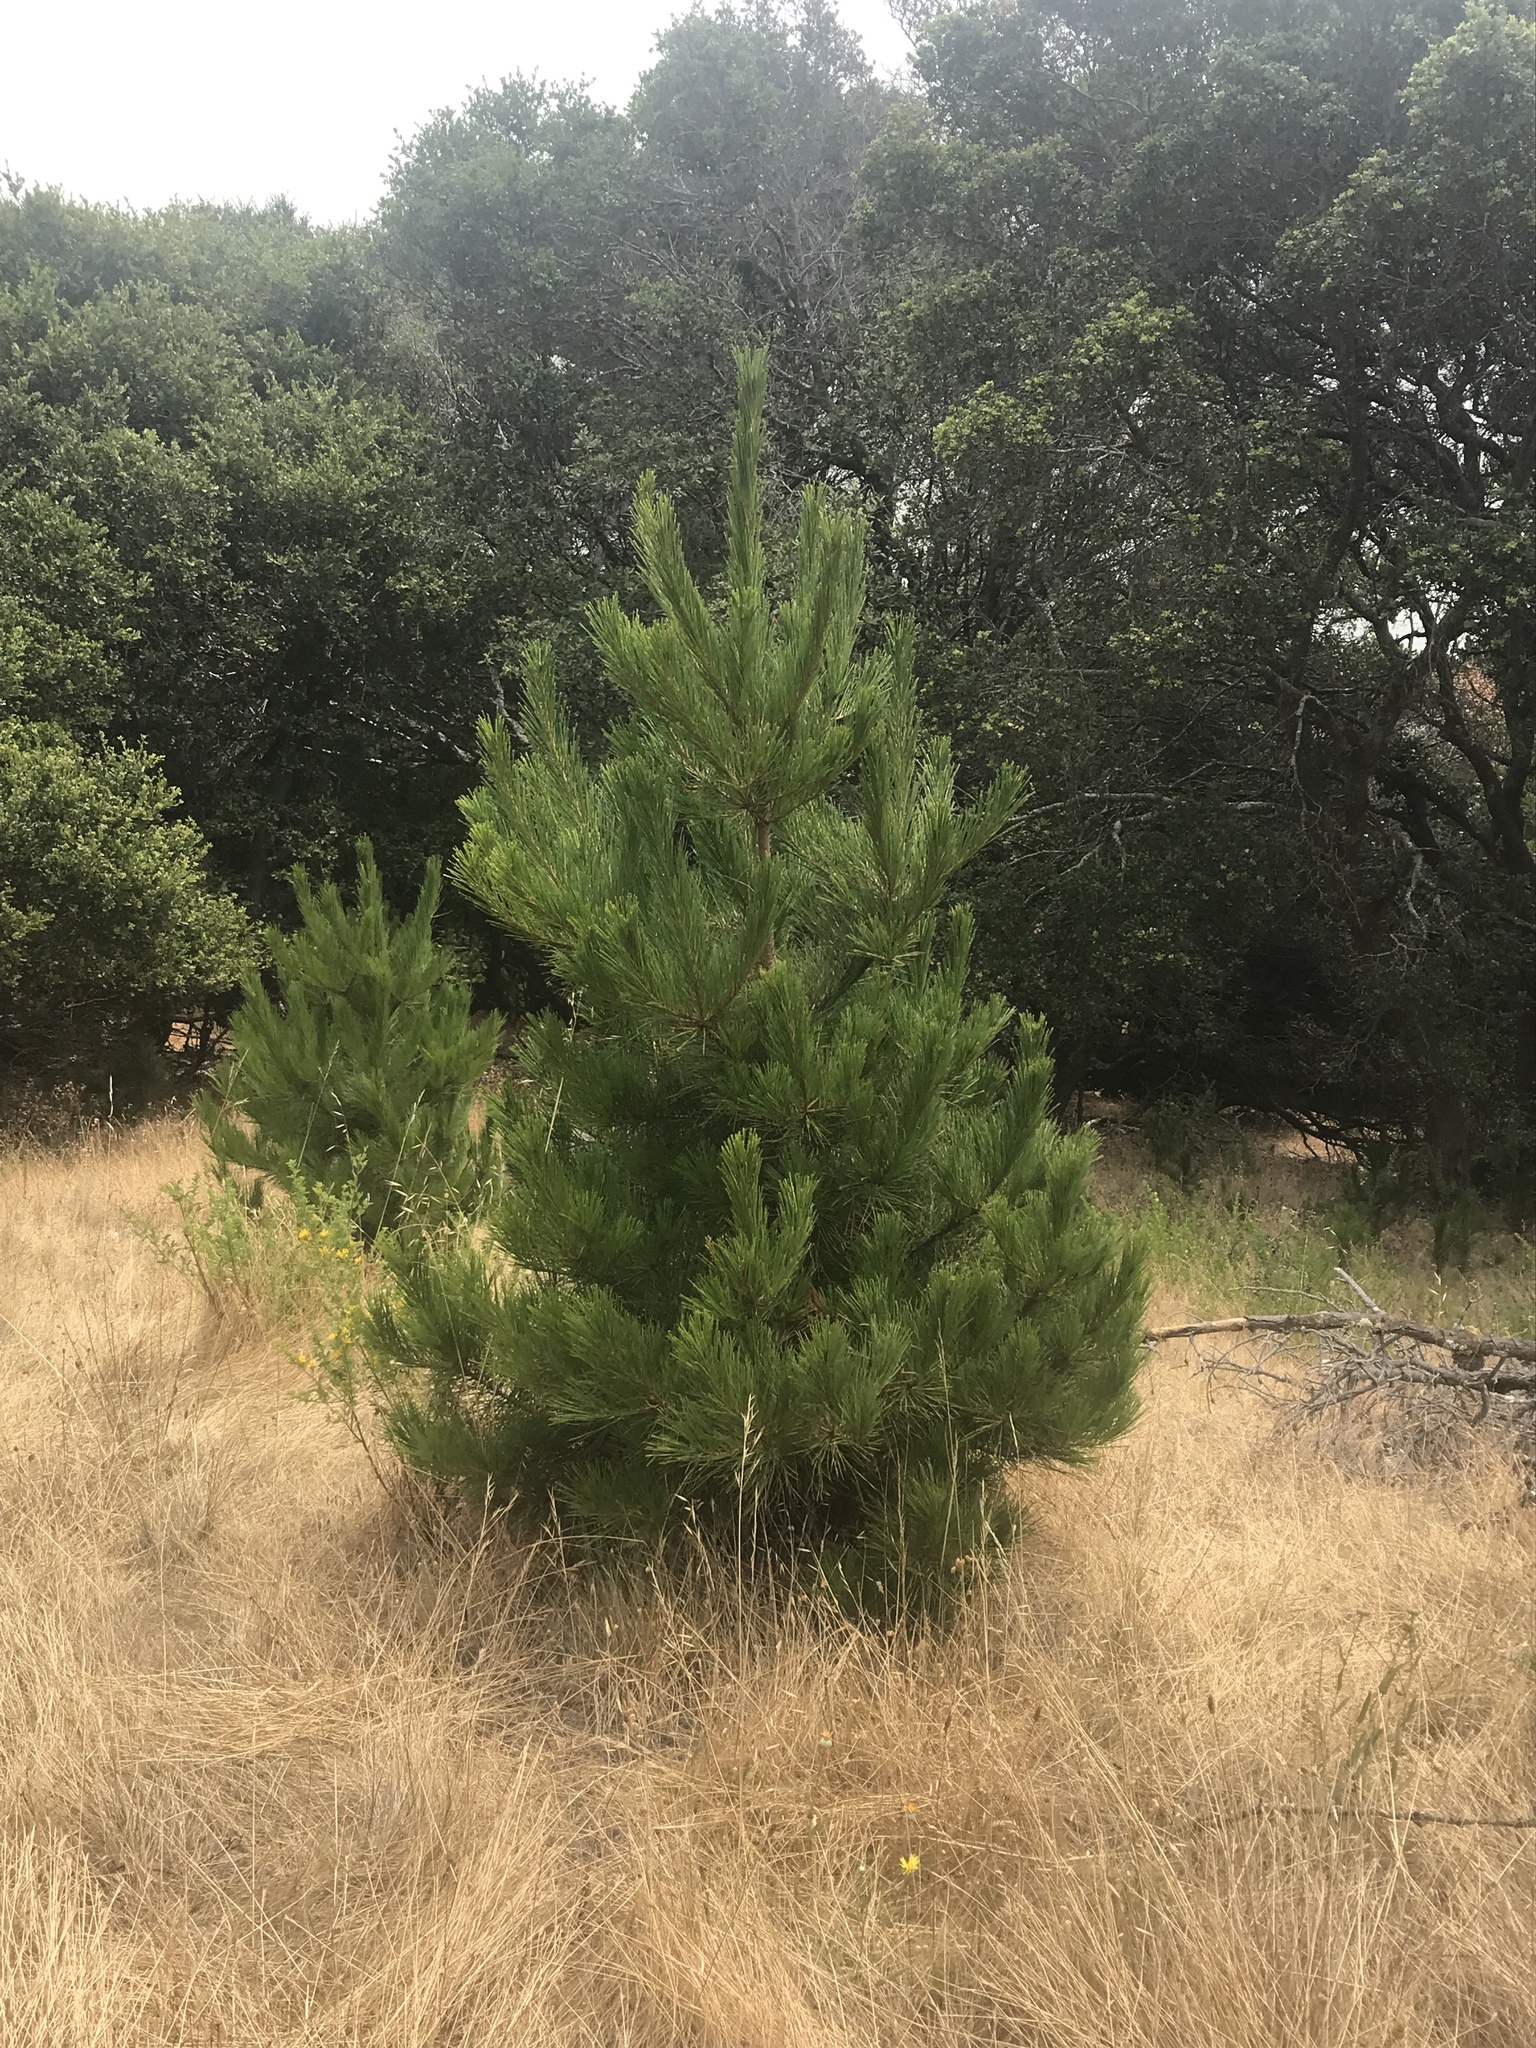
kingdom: Plantae
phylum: Tracheophyta
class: Pinopsida
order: Pinales
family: Pinaceae
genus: Pinus
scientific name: Pinus ponderosa
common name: Western yellow-pine
